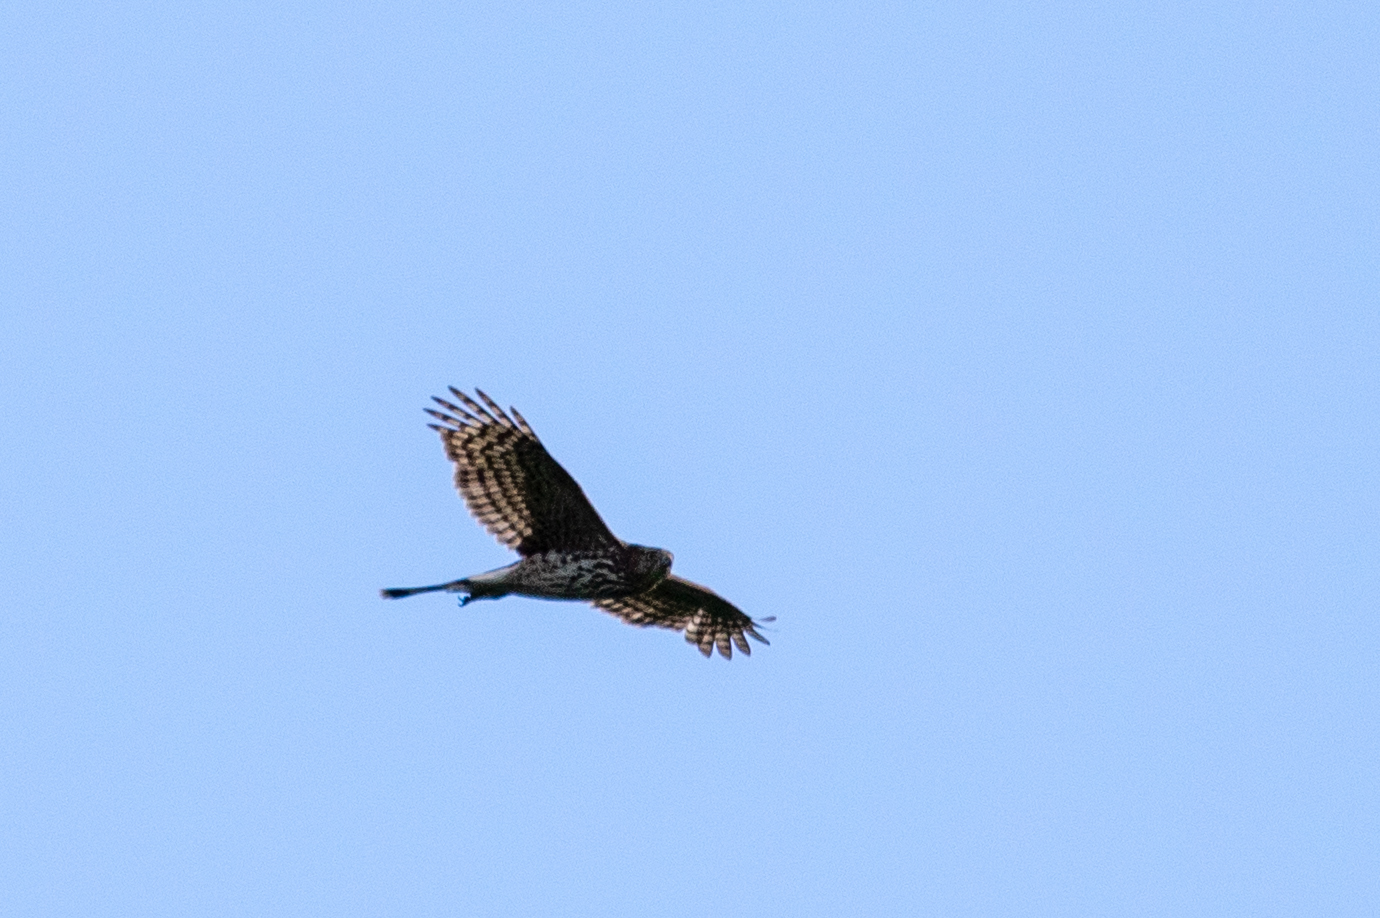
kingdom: Animalia
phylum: Chordata
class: Aves
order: Accipitriformes
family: Accipitridae
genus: Accipiter
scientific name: Accipiter cooperii
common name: Cooper's hawk
